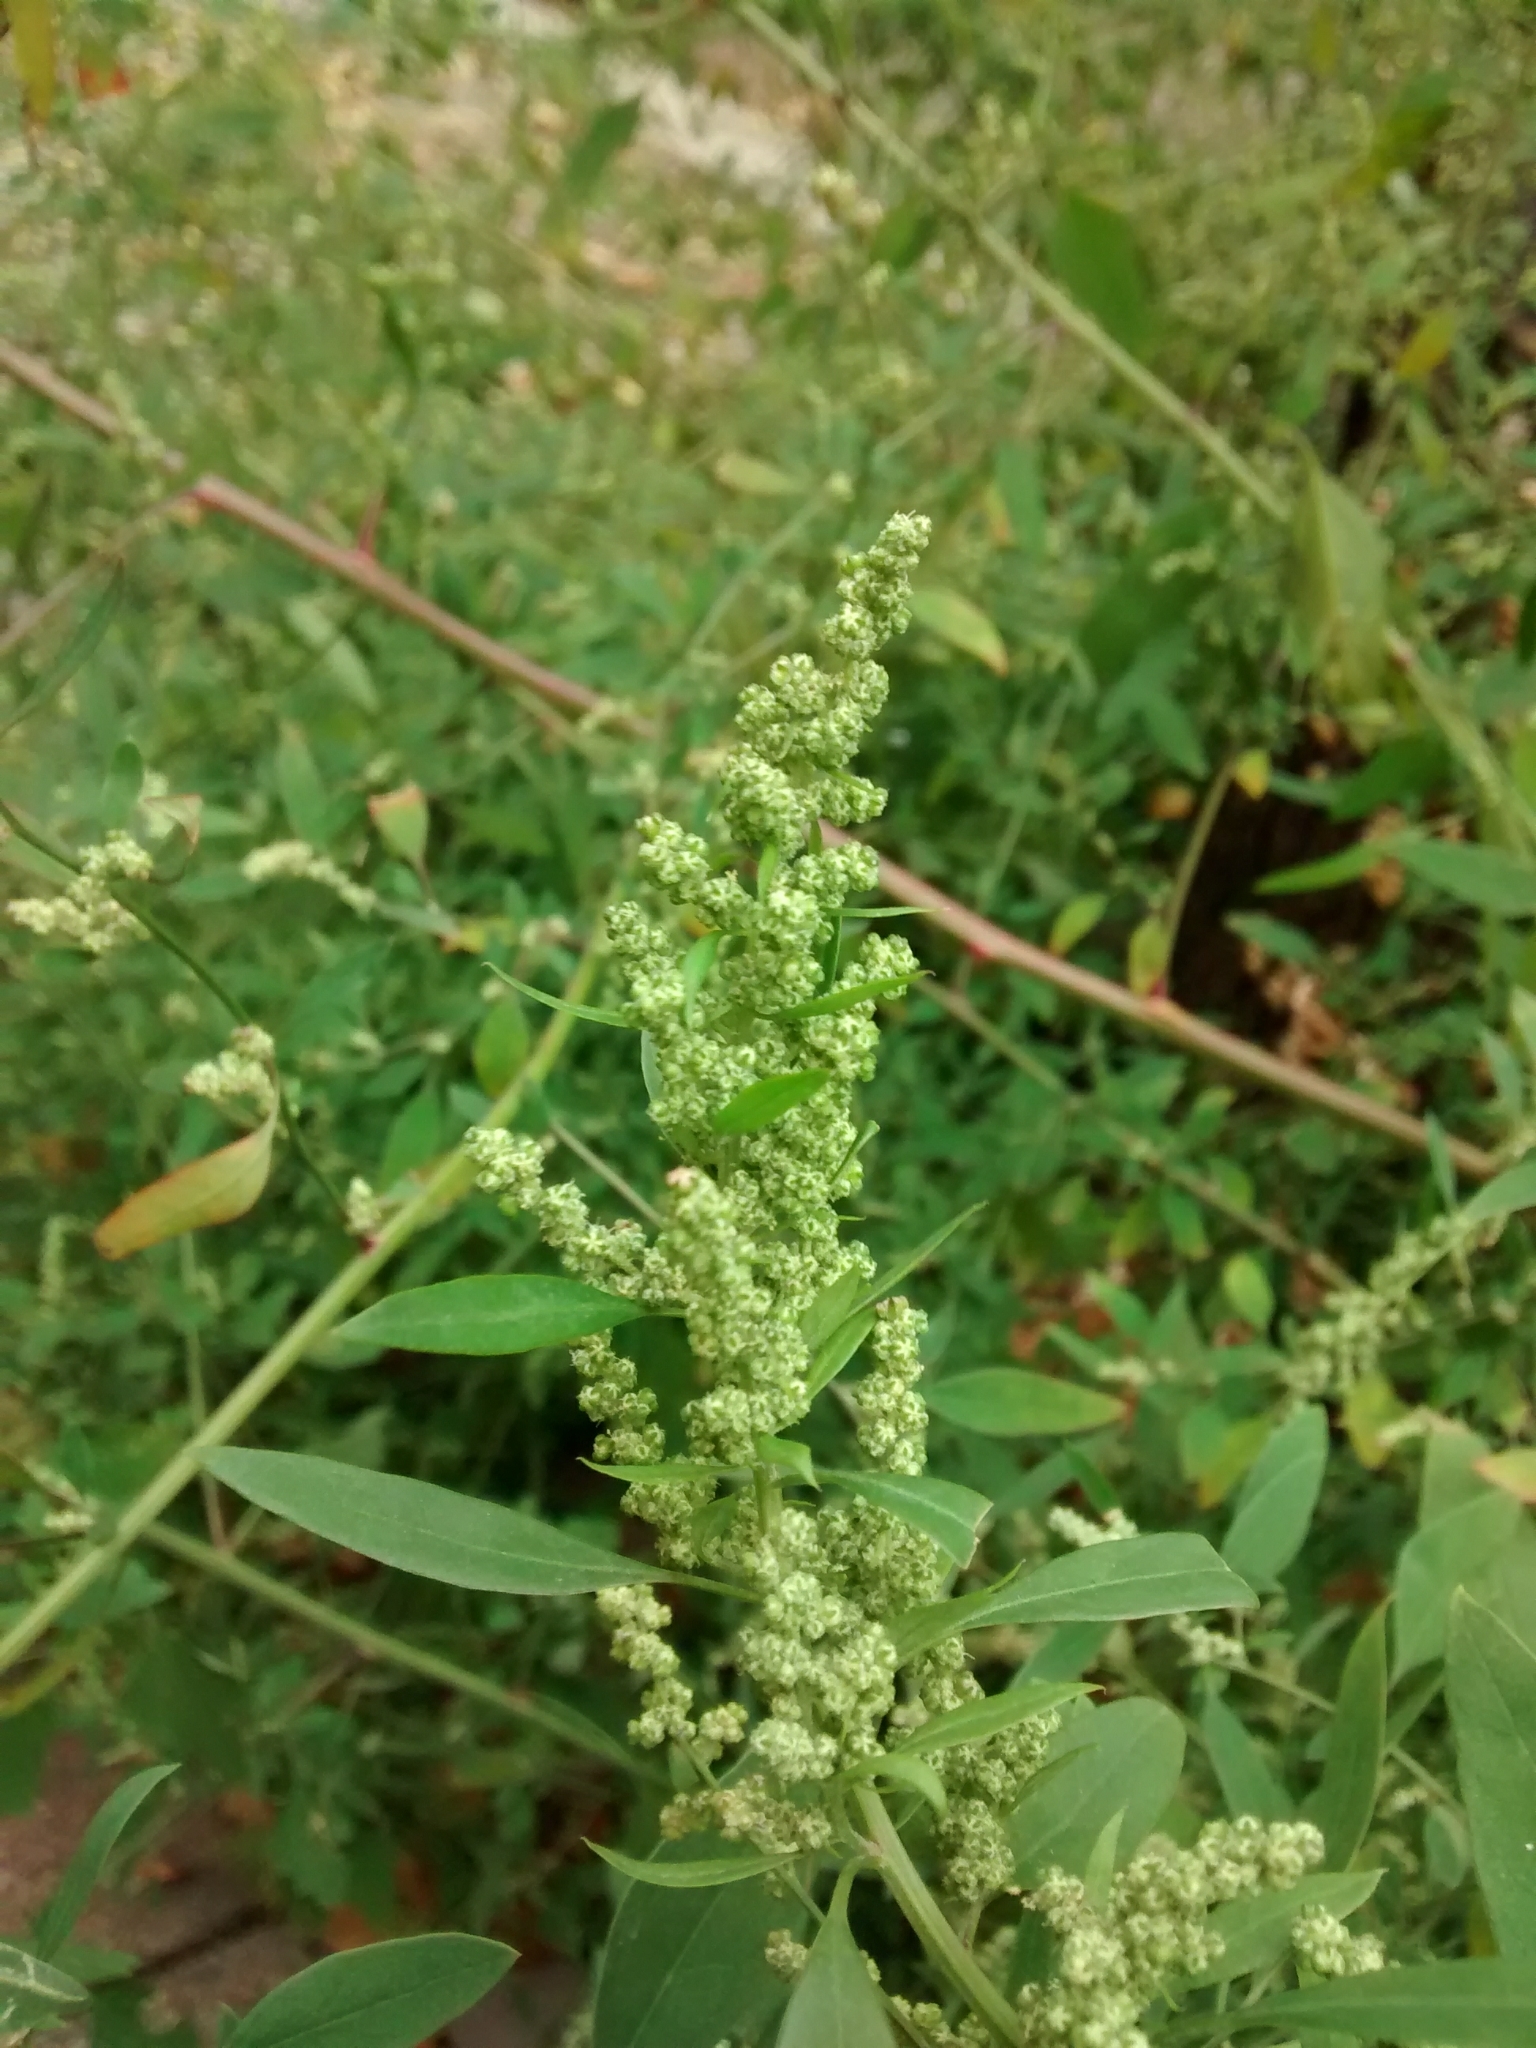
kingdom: Plantae
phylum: Tracheophyta
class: Magnoliopsida
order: Caryophyllales
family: Amaranthaceae
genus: Chenopodium
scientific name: Chenopodium album
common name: Fat-hen
